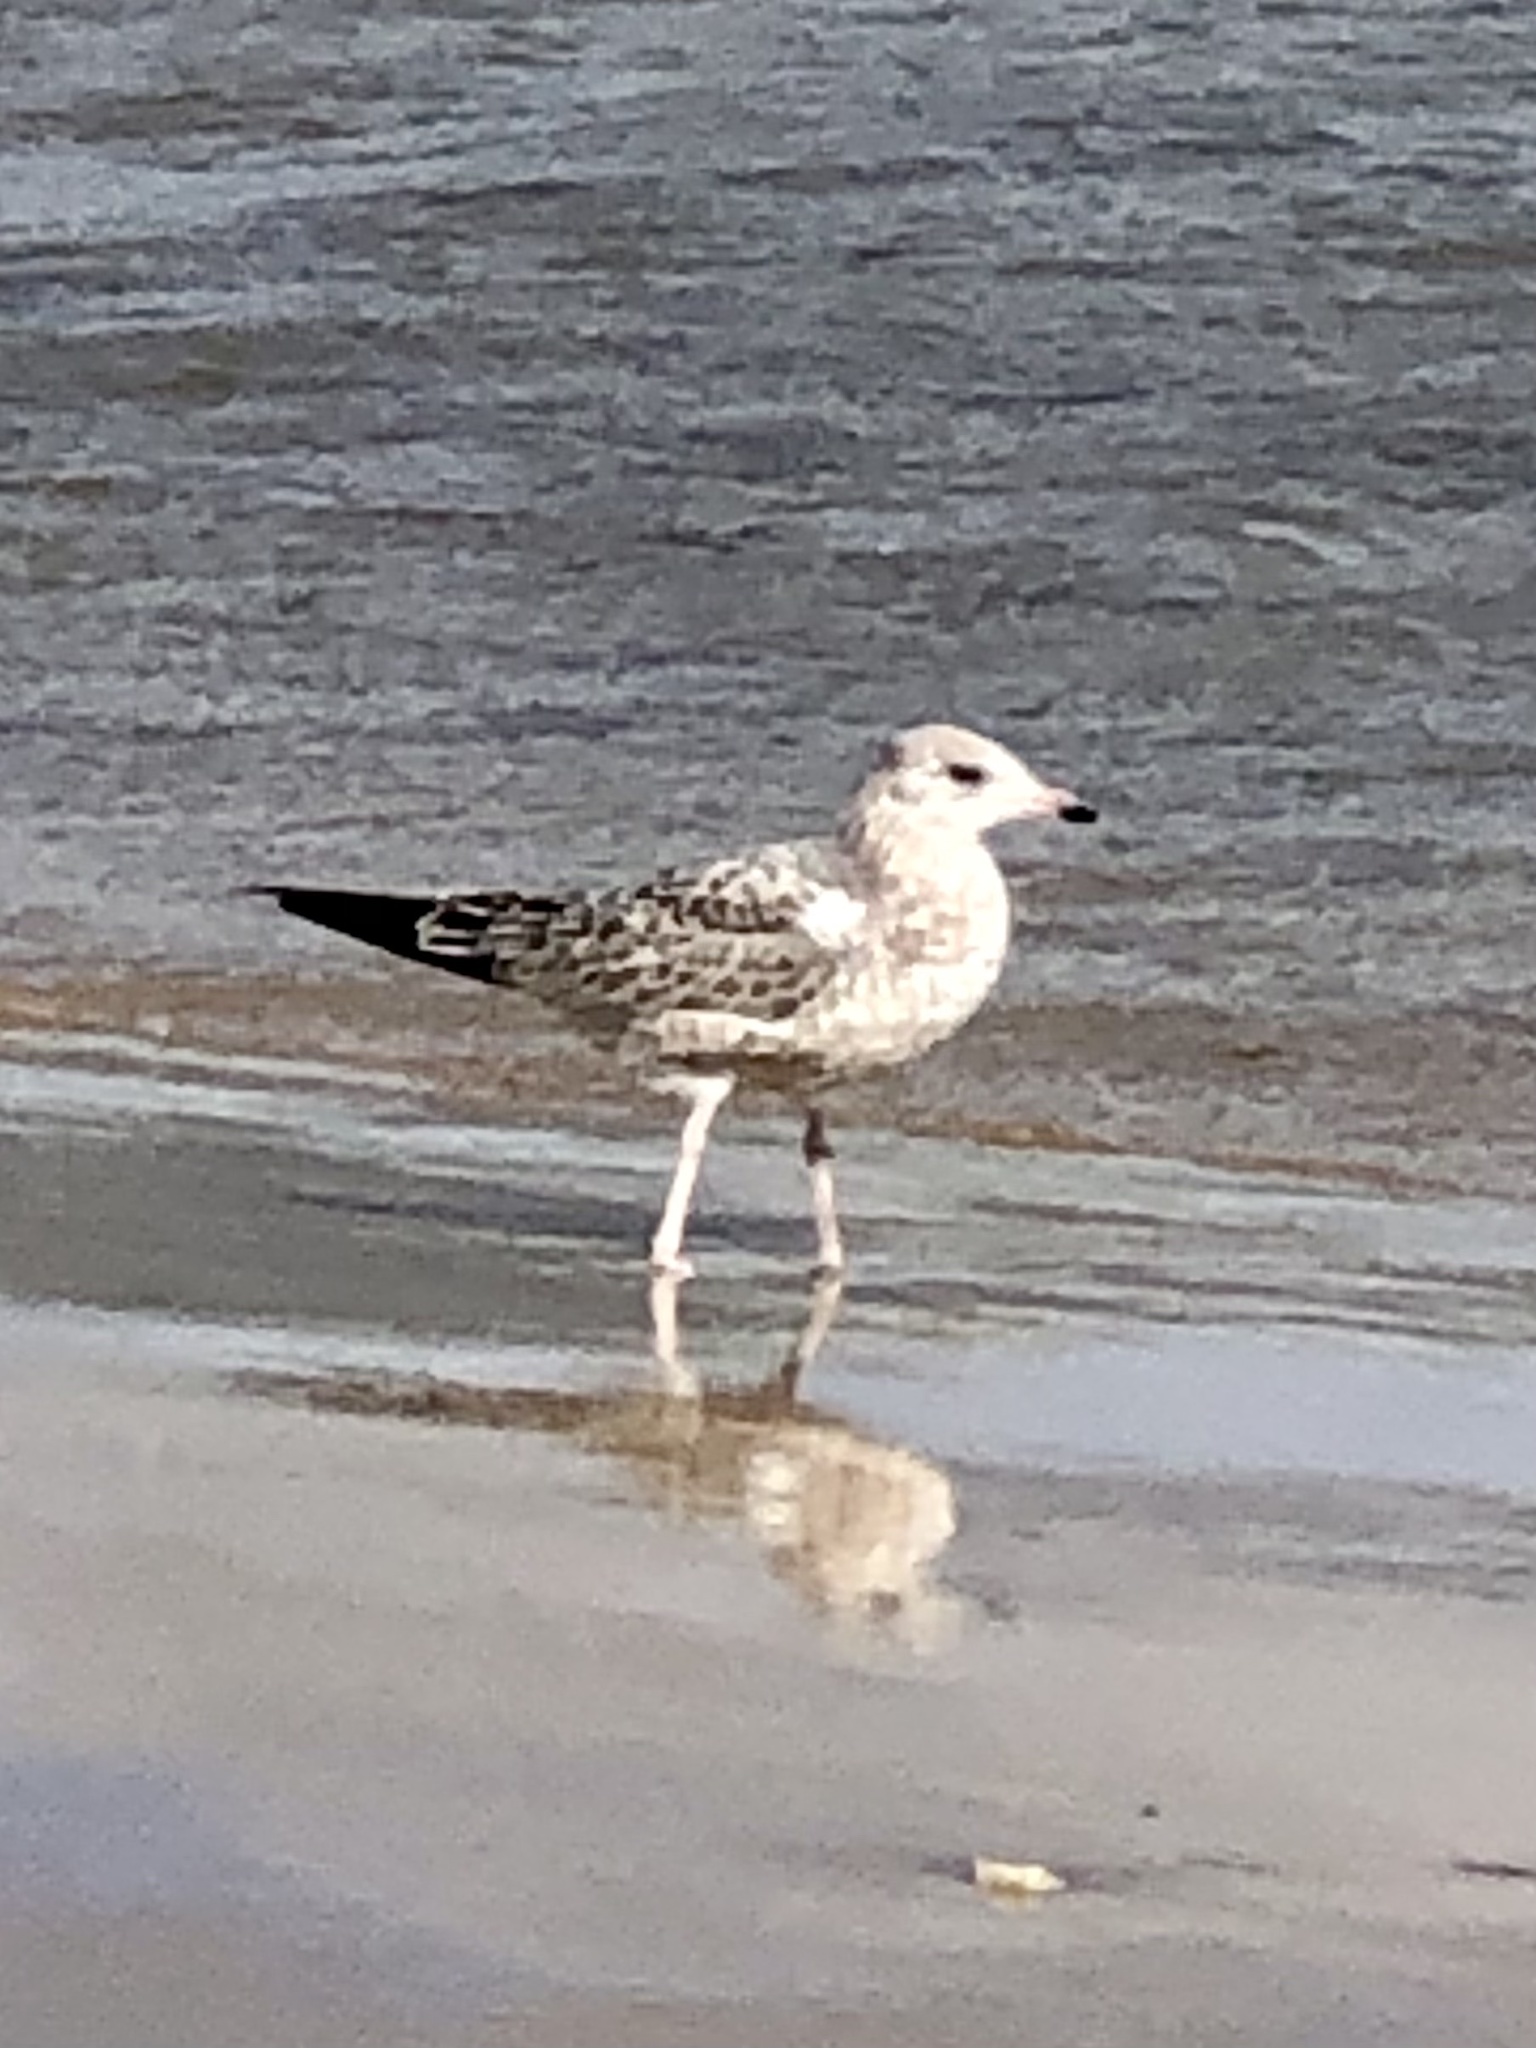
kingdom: Animalia
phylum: Chordata
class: Aves
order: Charadriiformes
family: Laridae
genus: Larus
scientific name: Larus delawarensis
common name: Ring-billed gull
